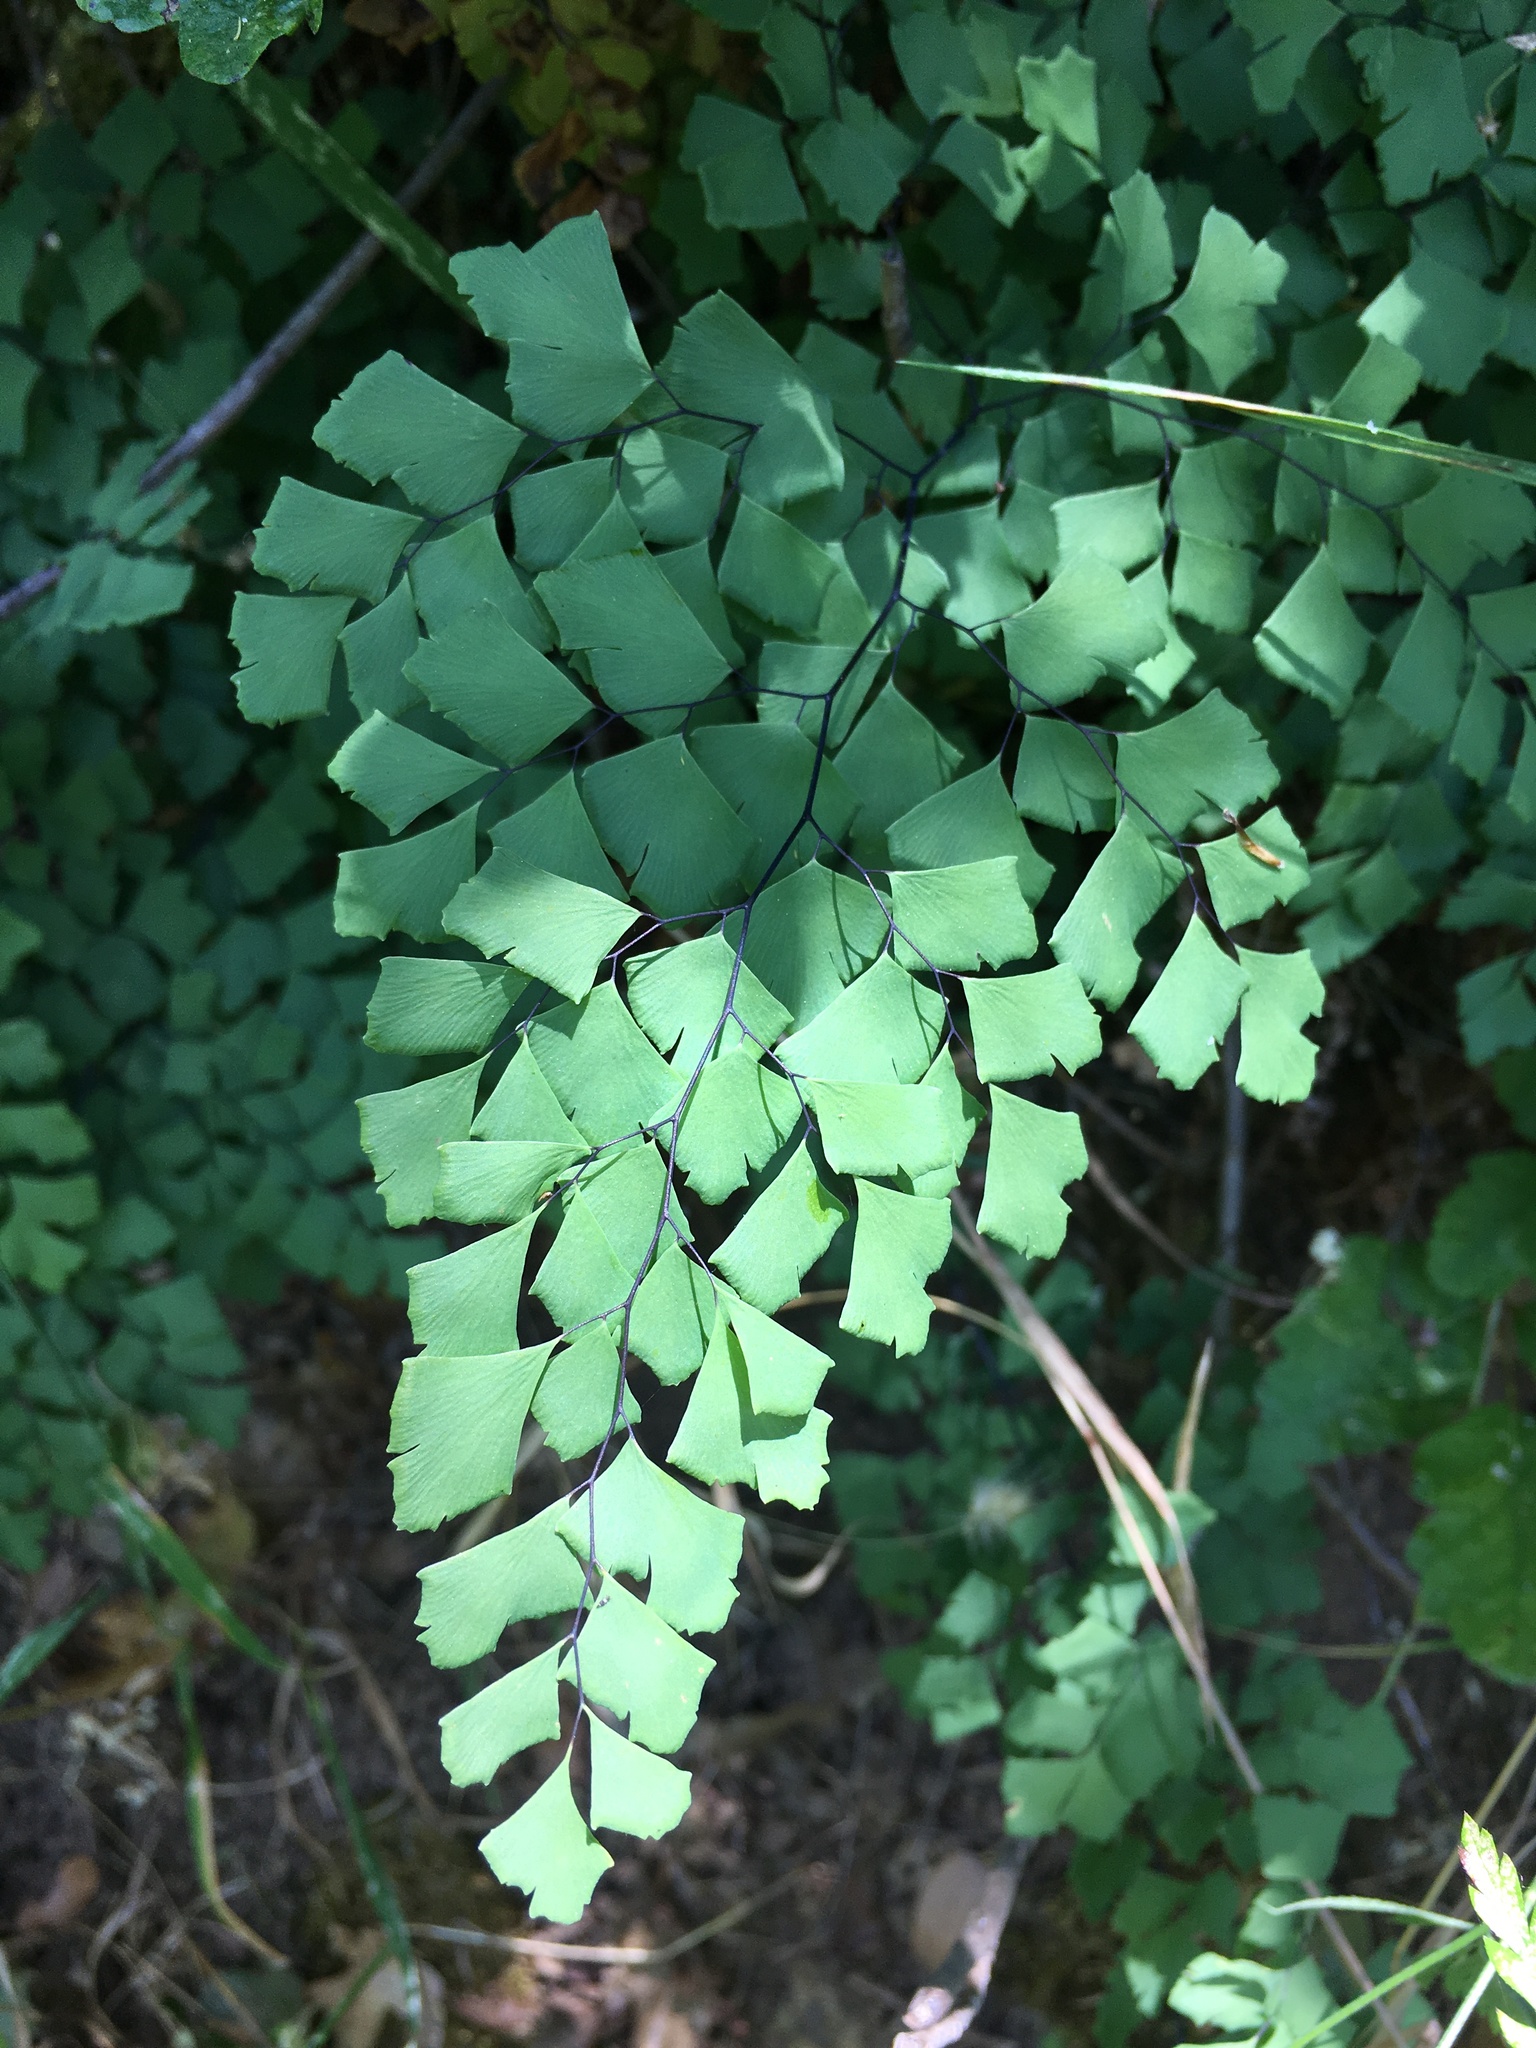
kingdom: Plantae
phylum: Tracheophyta
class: Polypodiopsida
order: Polypodiales
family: Pteridaceae
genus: Adiantum
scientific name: Adiantum shastense
